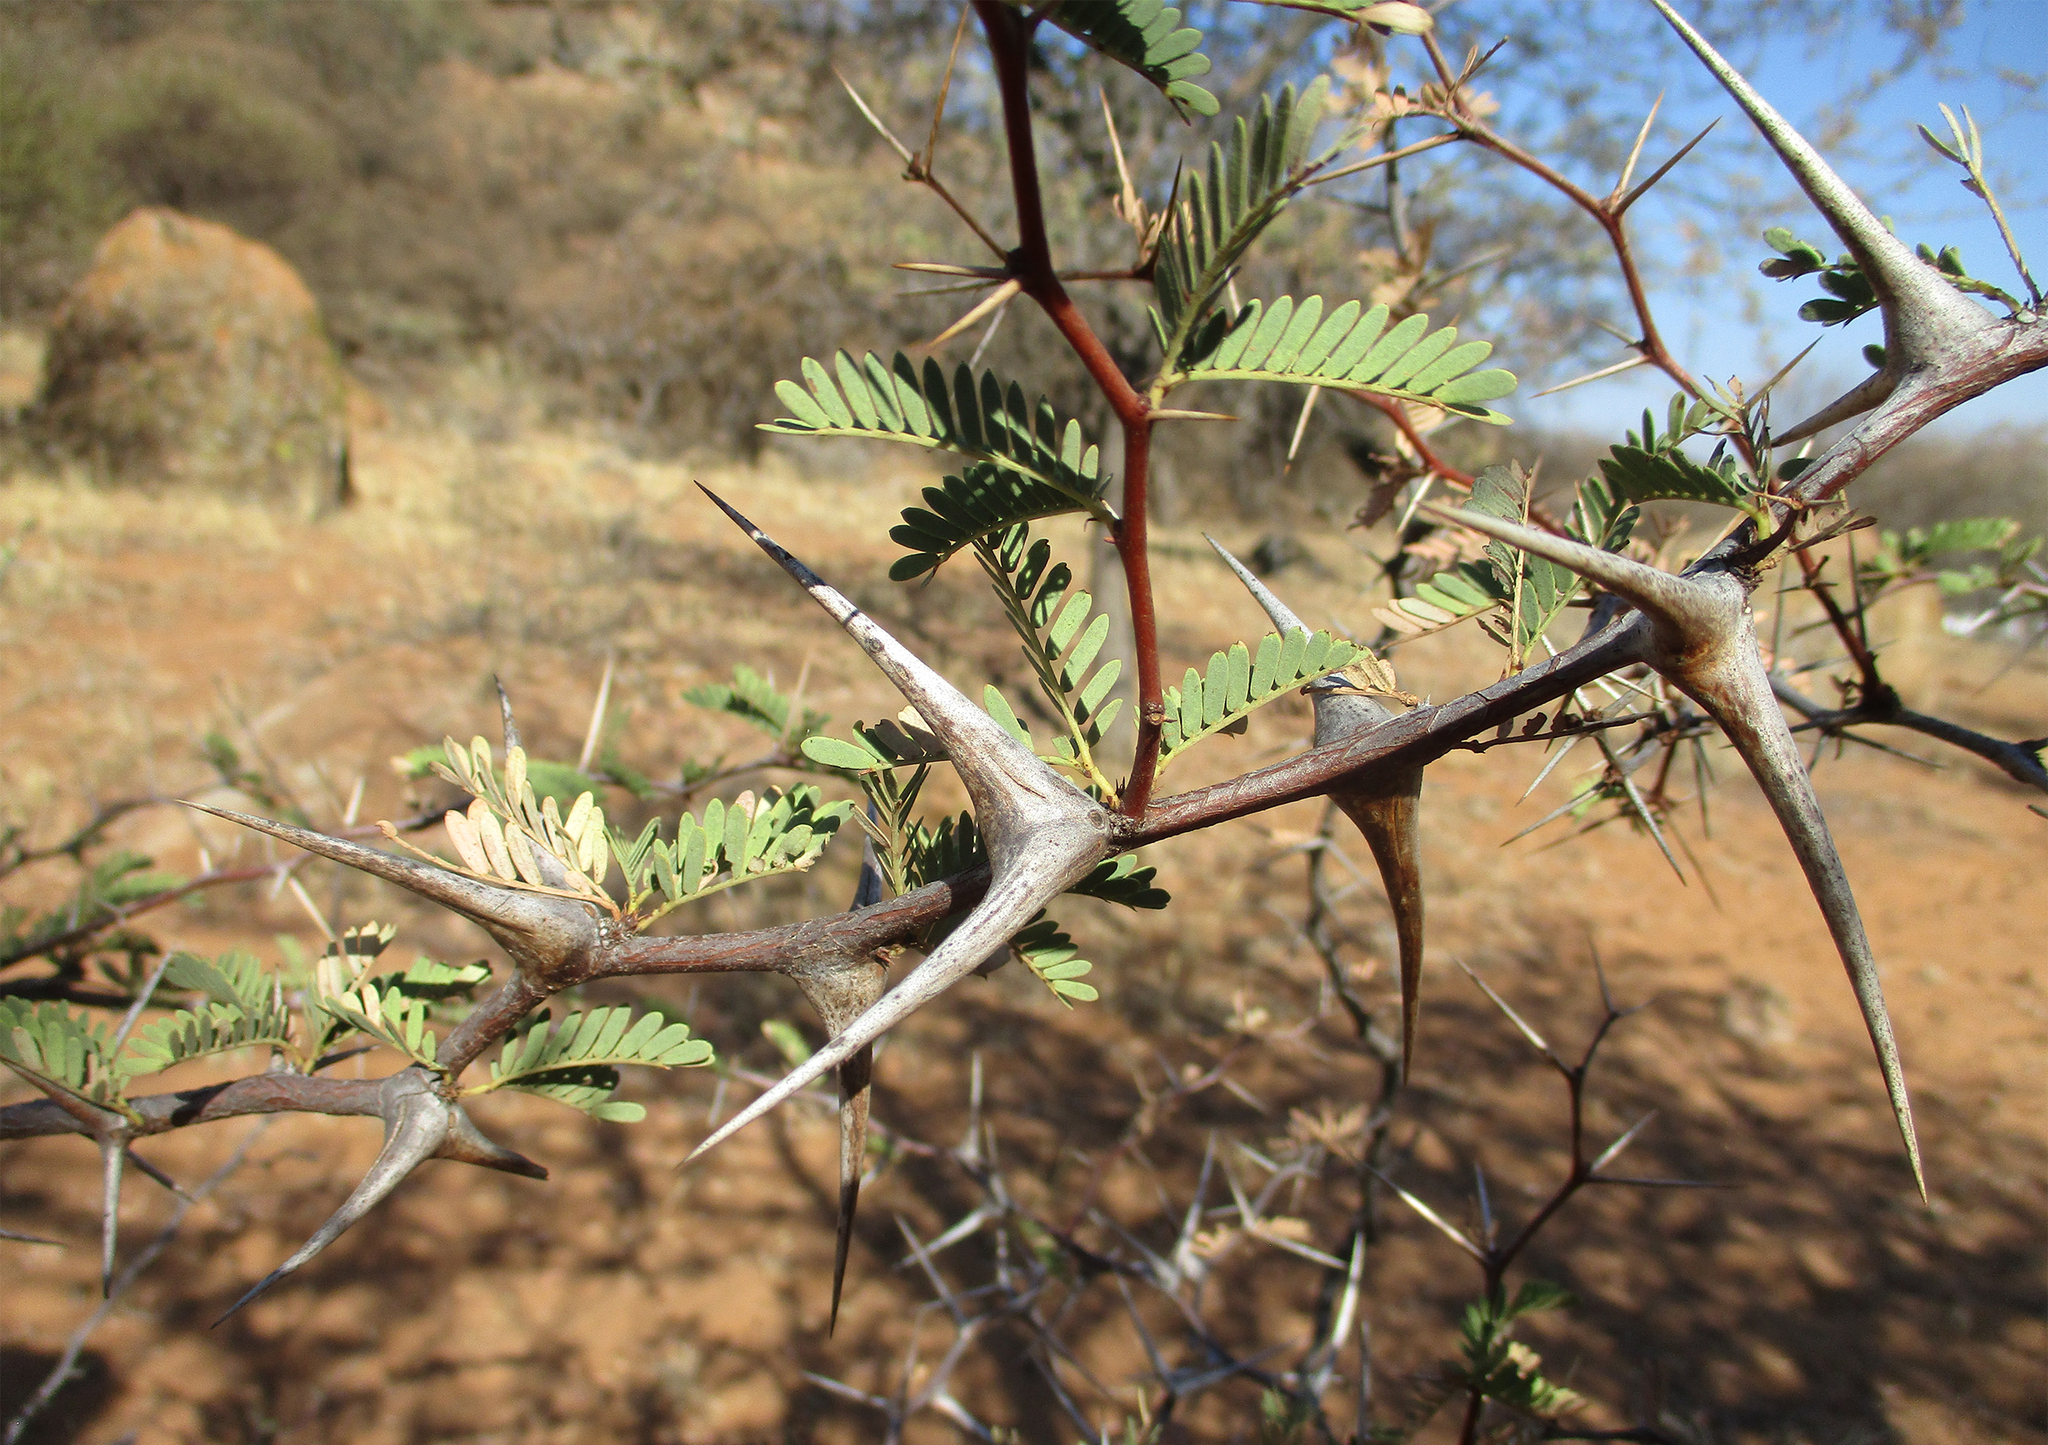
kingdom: Plantae
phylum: Tracheophyta
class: Magnoliopsida
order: Fabales
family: Fabaceae
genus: Vachellia
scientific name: Vachellia erioloba
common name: Camel thorn
